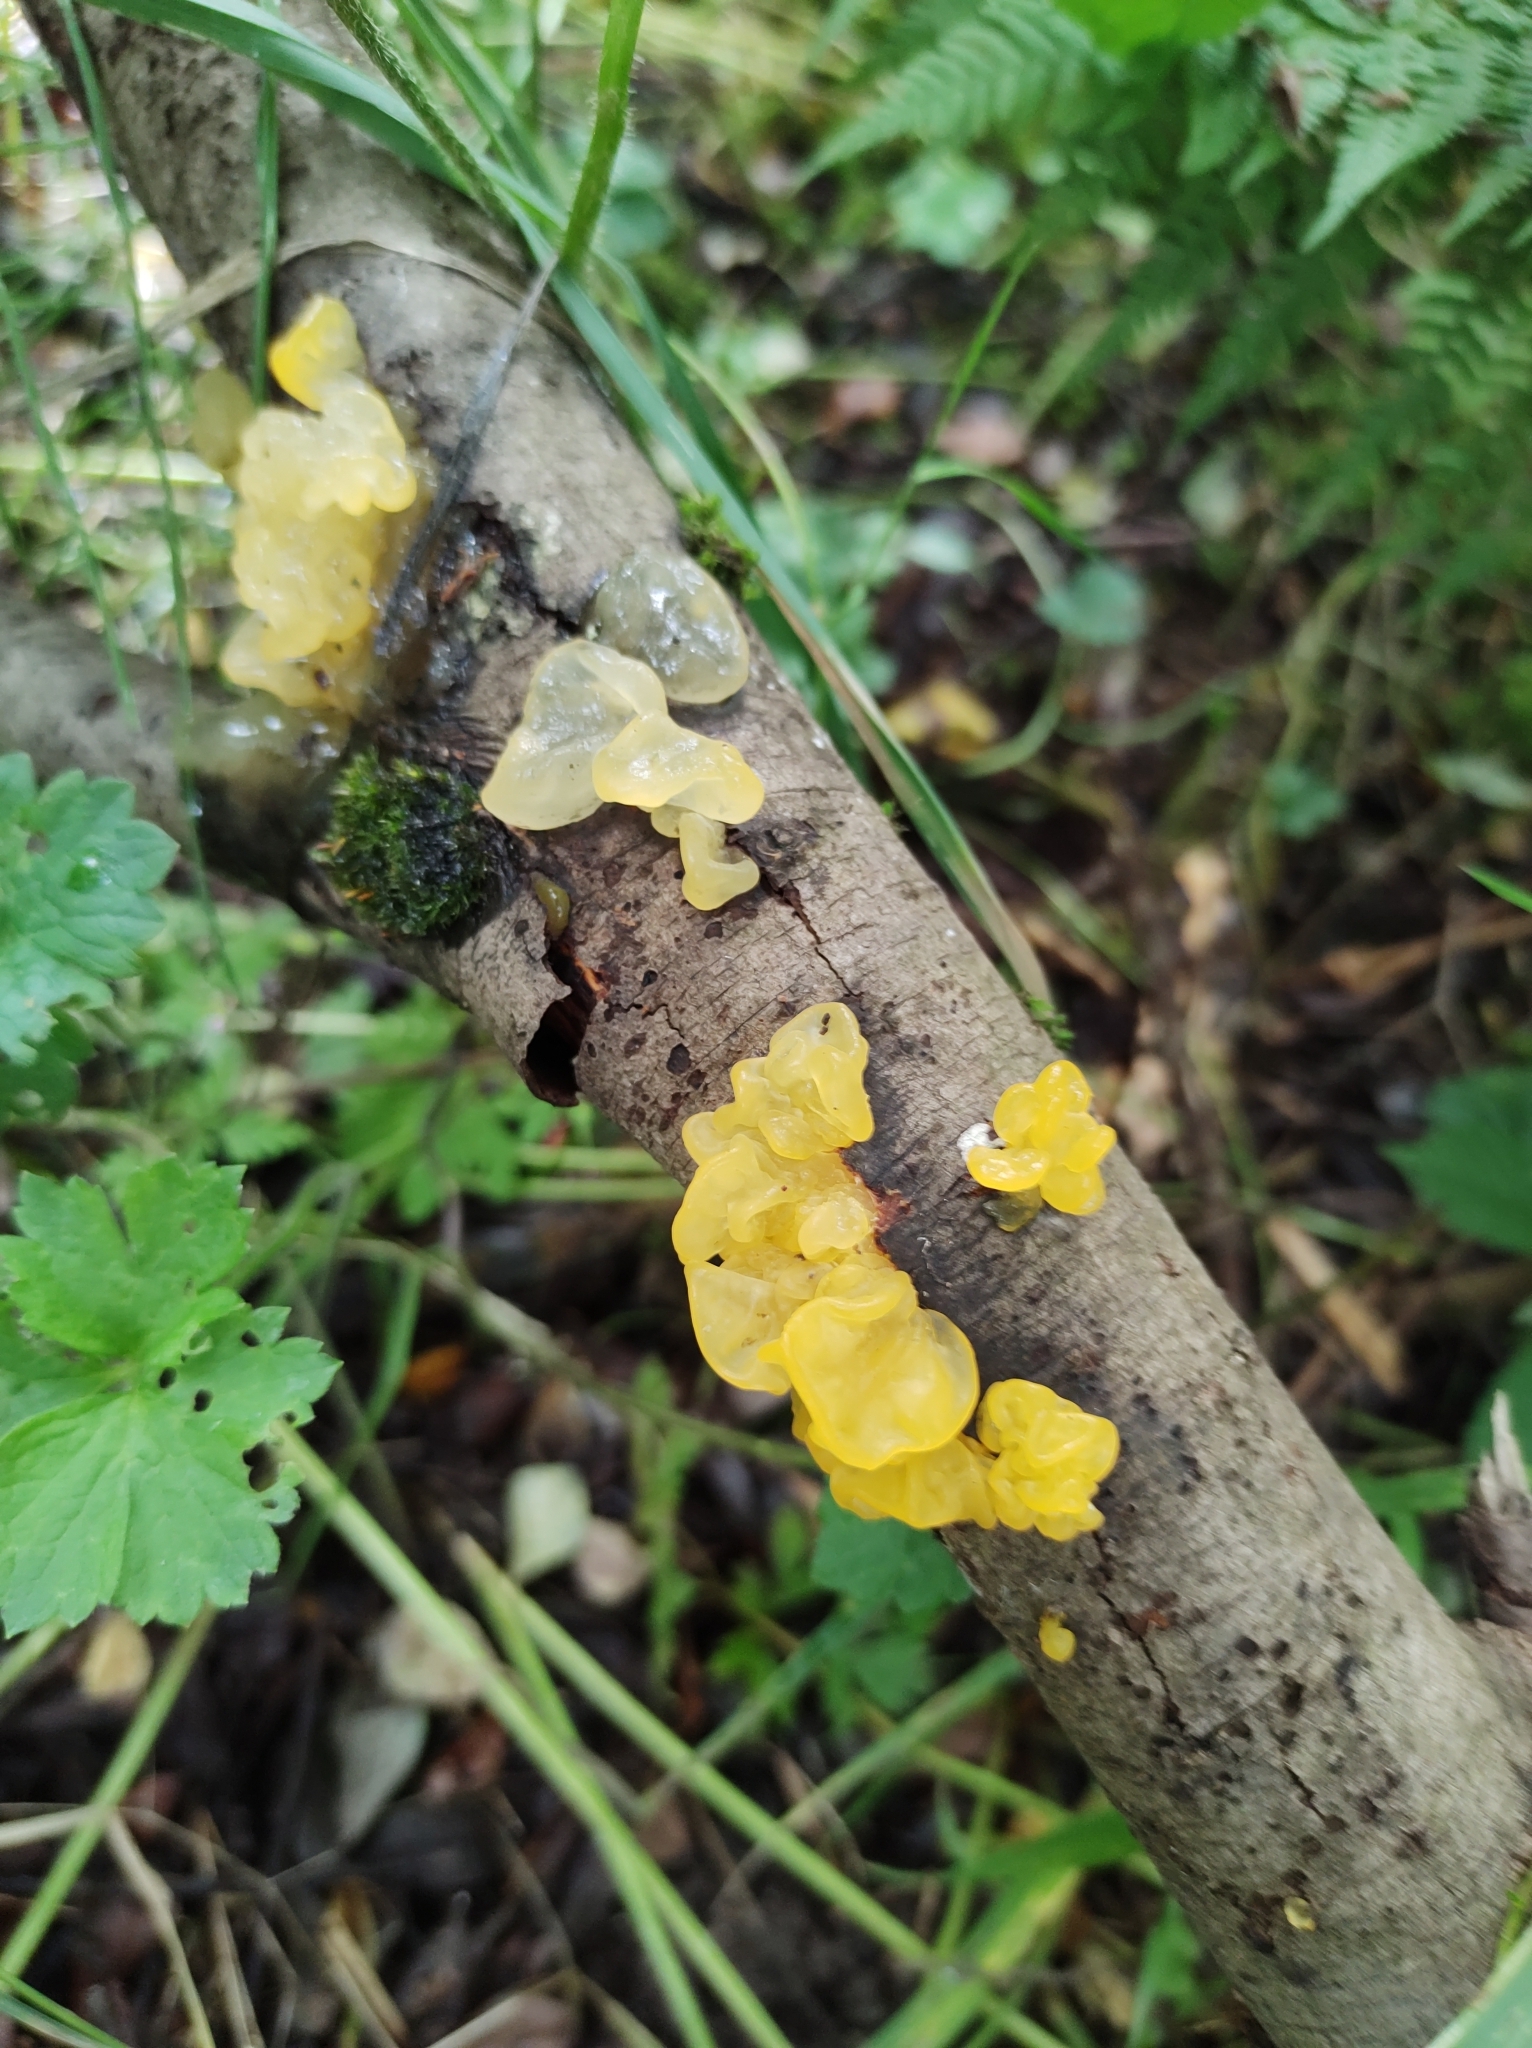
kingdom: Fungi
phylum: Basidiomycota
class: Tremellomycetes
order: Tremellales
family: Tremellaceae
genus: Tremella
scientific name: Tremella mesenterica
